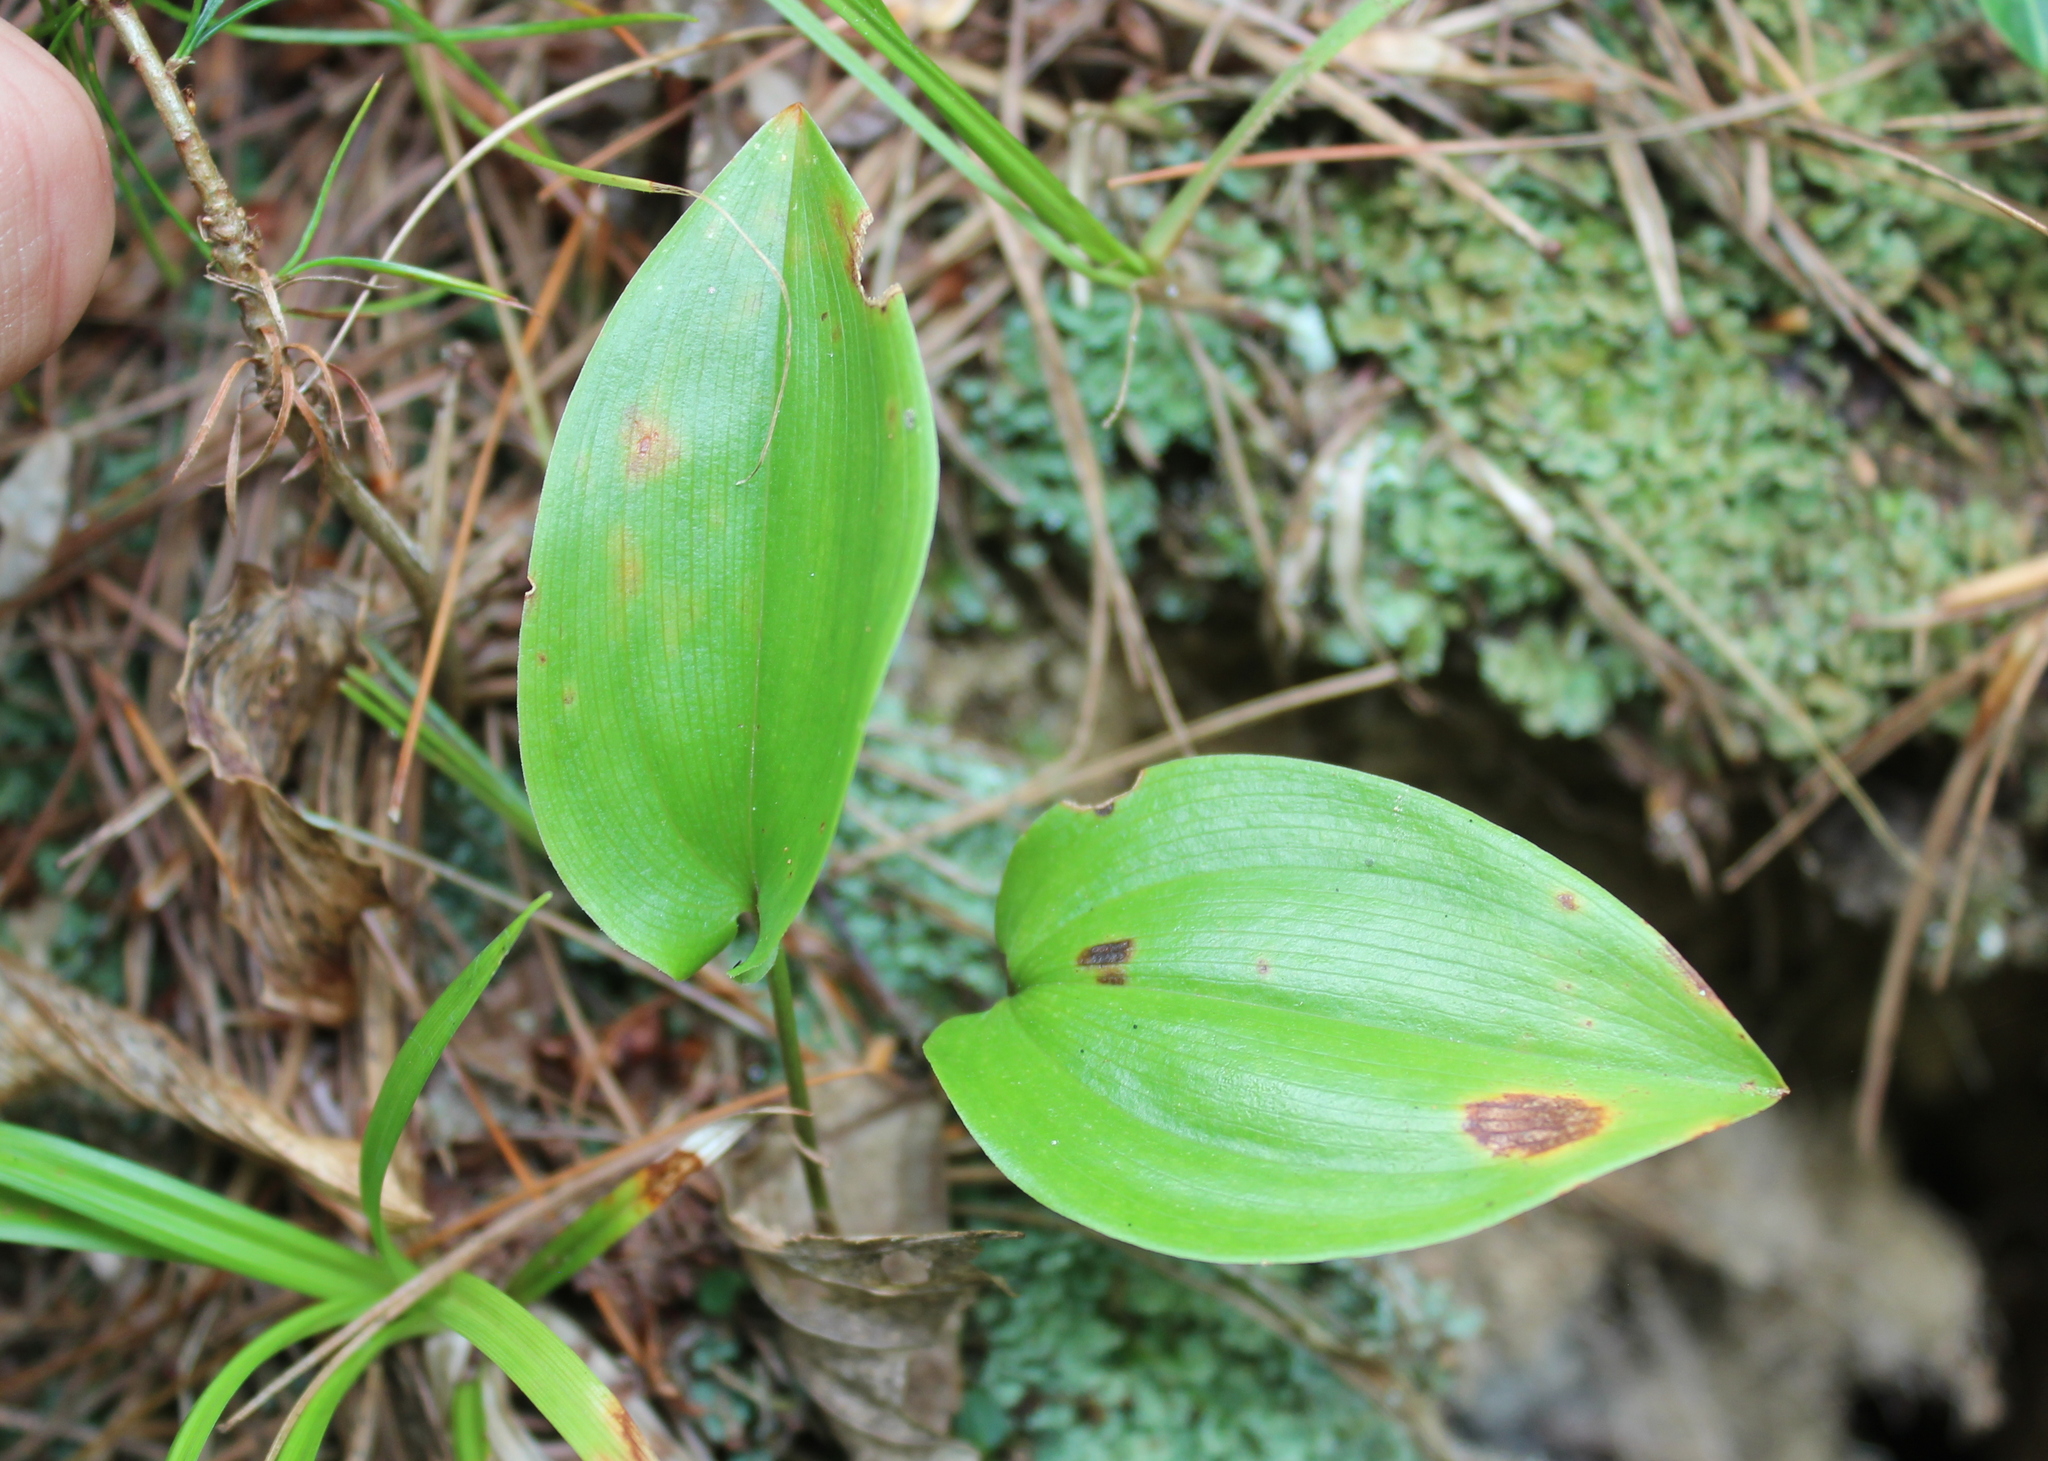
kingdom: Plantae
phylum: Tracheophyta
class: Liliopsida
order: Asparagales
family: Asparagaceae
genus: Maianthemum
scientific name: Maianthemum canadense
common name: False lily-of-the-valley
